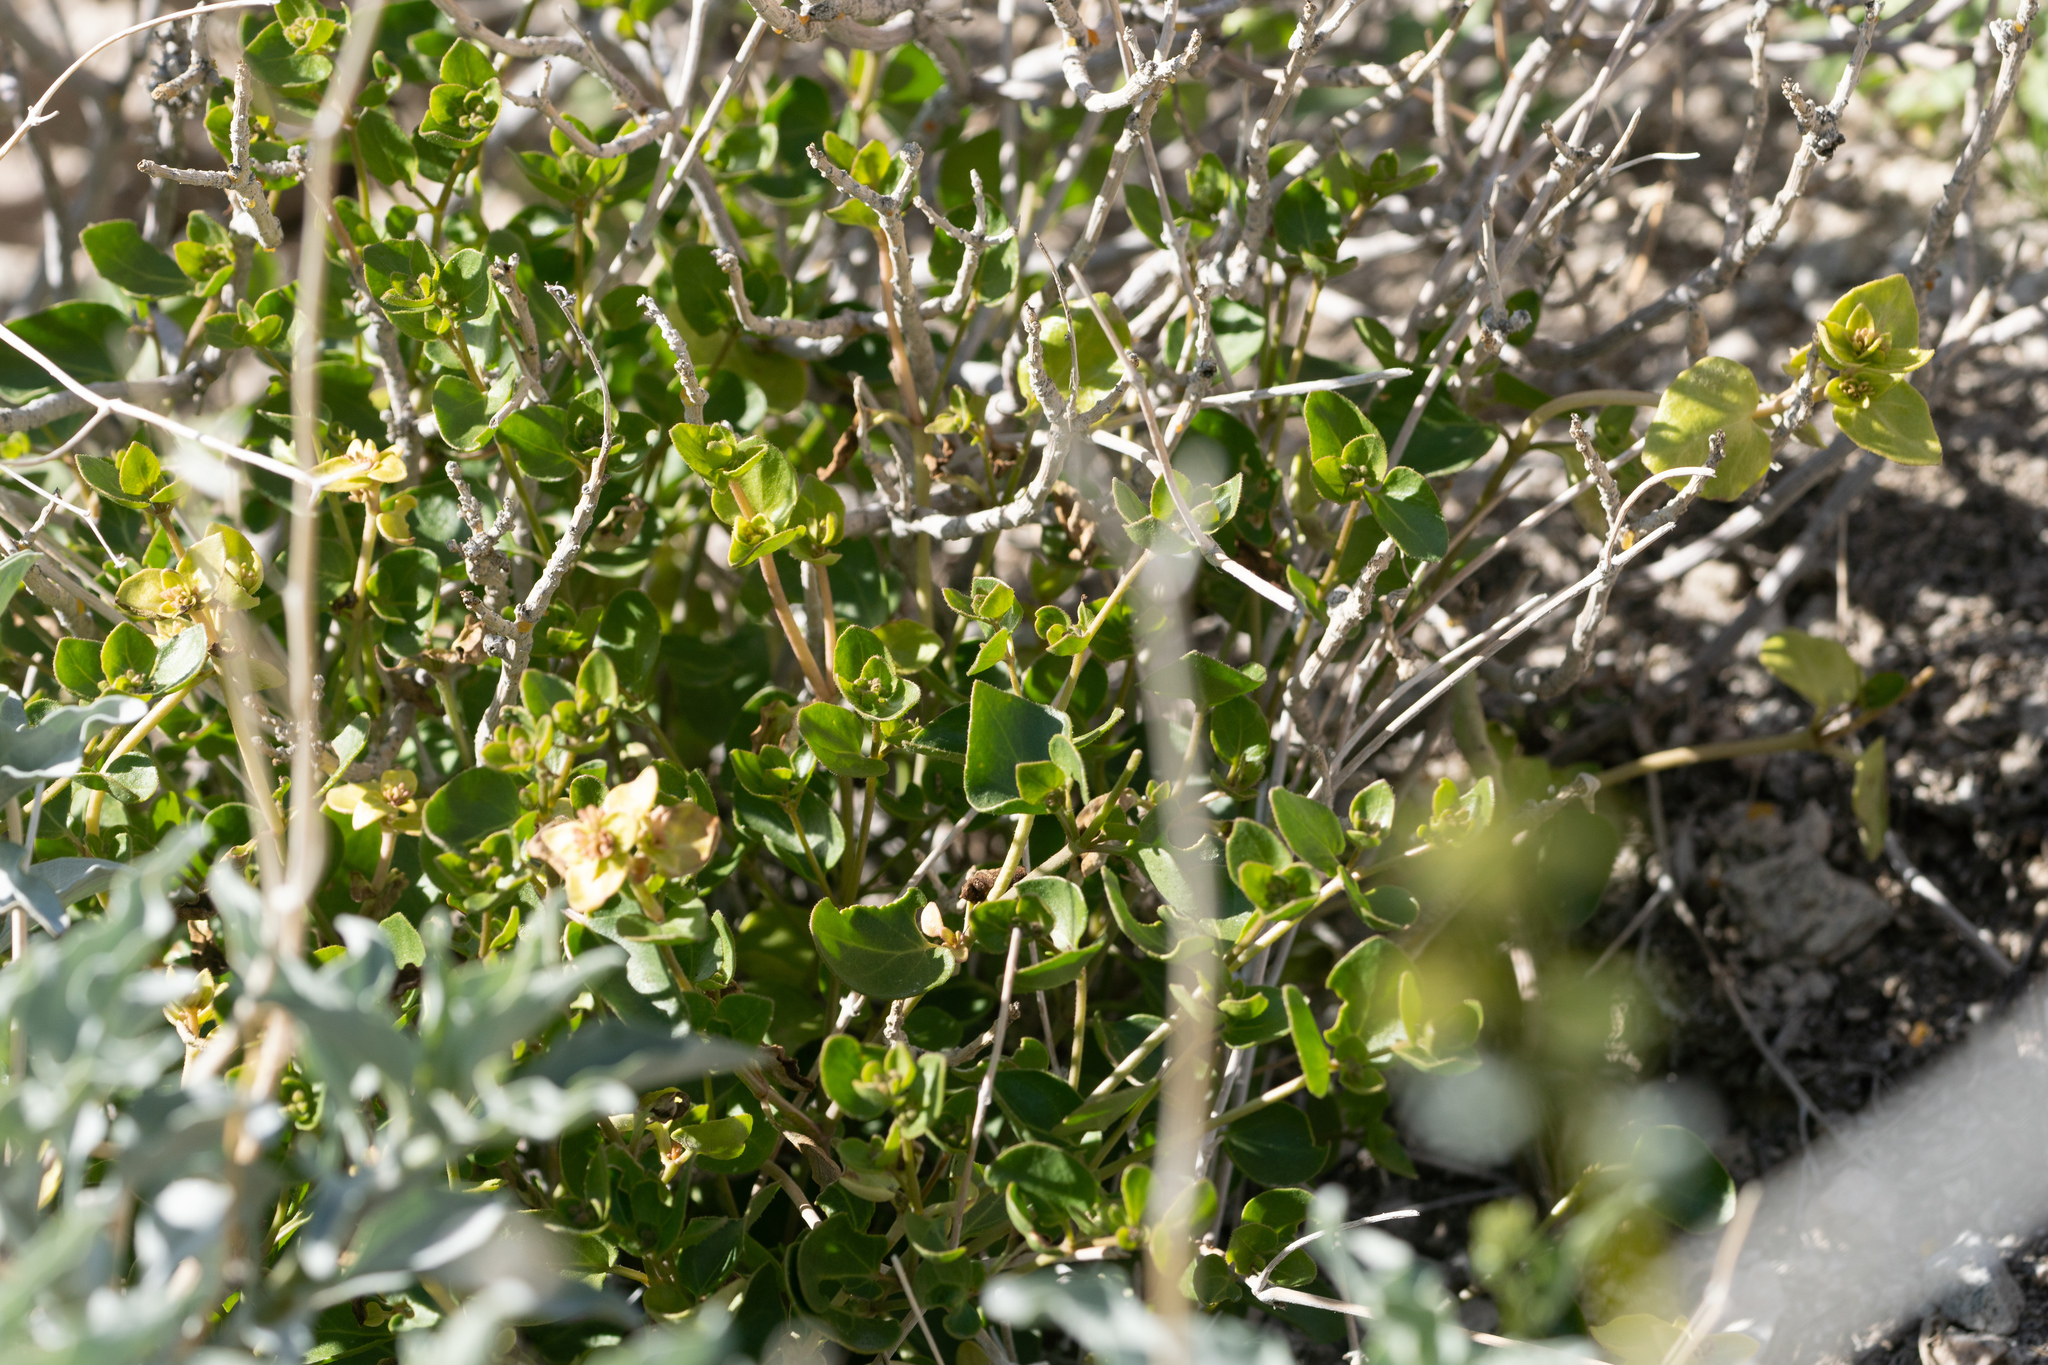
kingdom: Plantae
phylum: Tracheophyta
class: Magnoliopsida
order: Caryophyllales
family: Nyctaginaceae
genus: Mirabilis
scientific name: Mirabilis laevis
